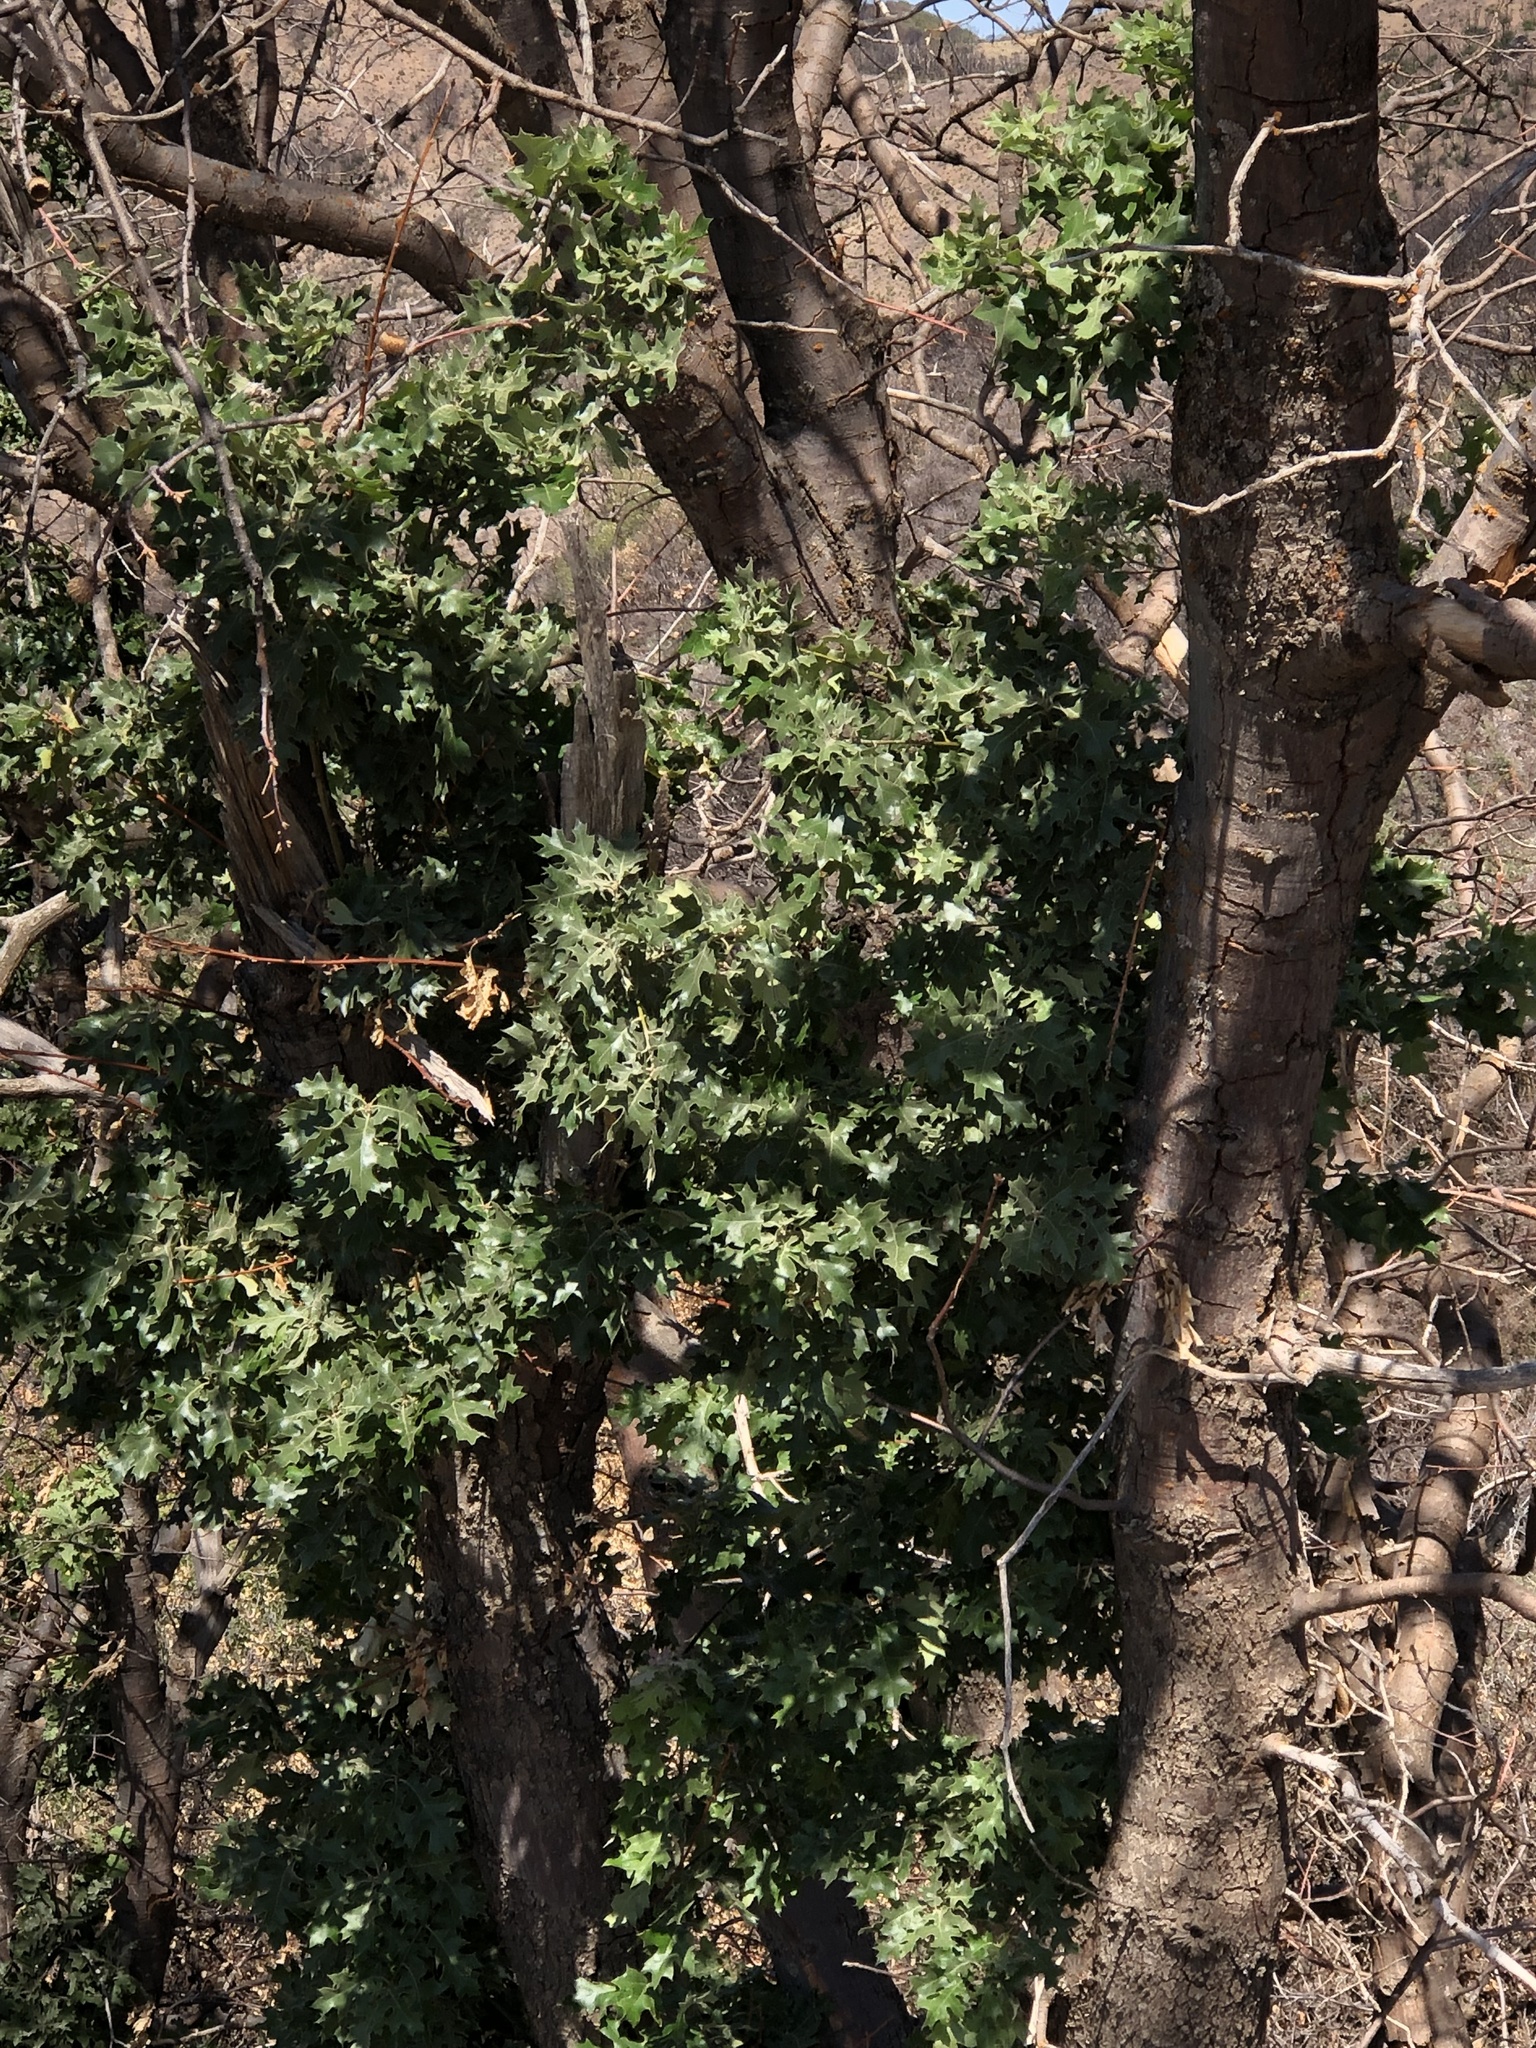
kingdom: Plantae
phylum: Tracheophyta
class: Magnoliopsida
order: Fagales
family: Fagaceae
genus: Quercus
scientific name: Quercus kelloggii
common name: California black oak
